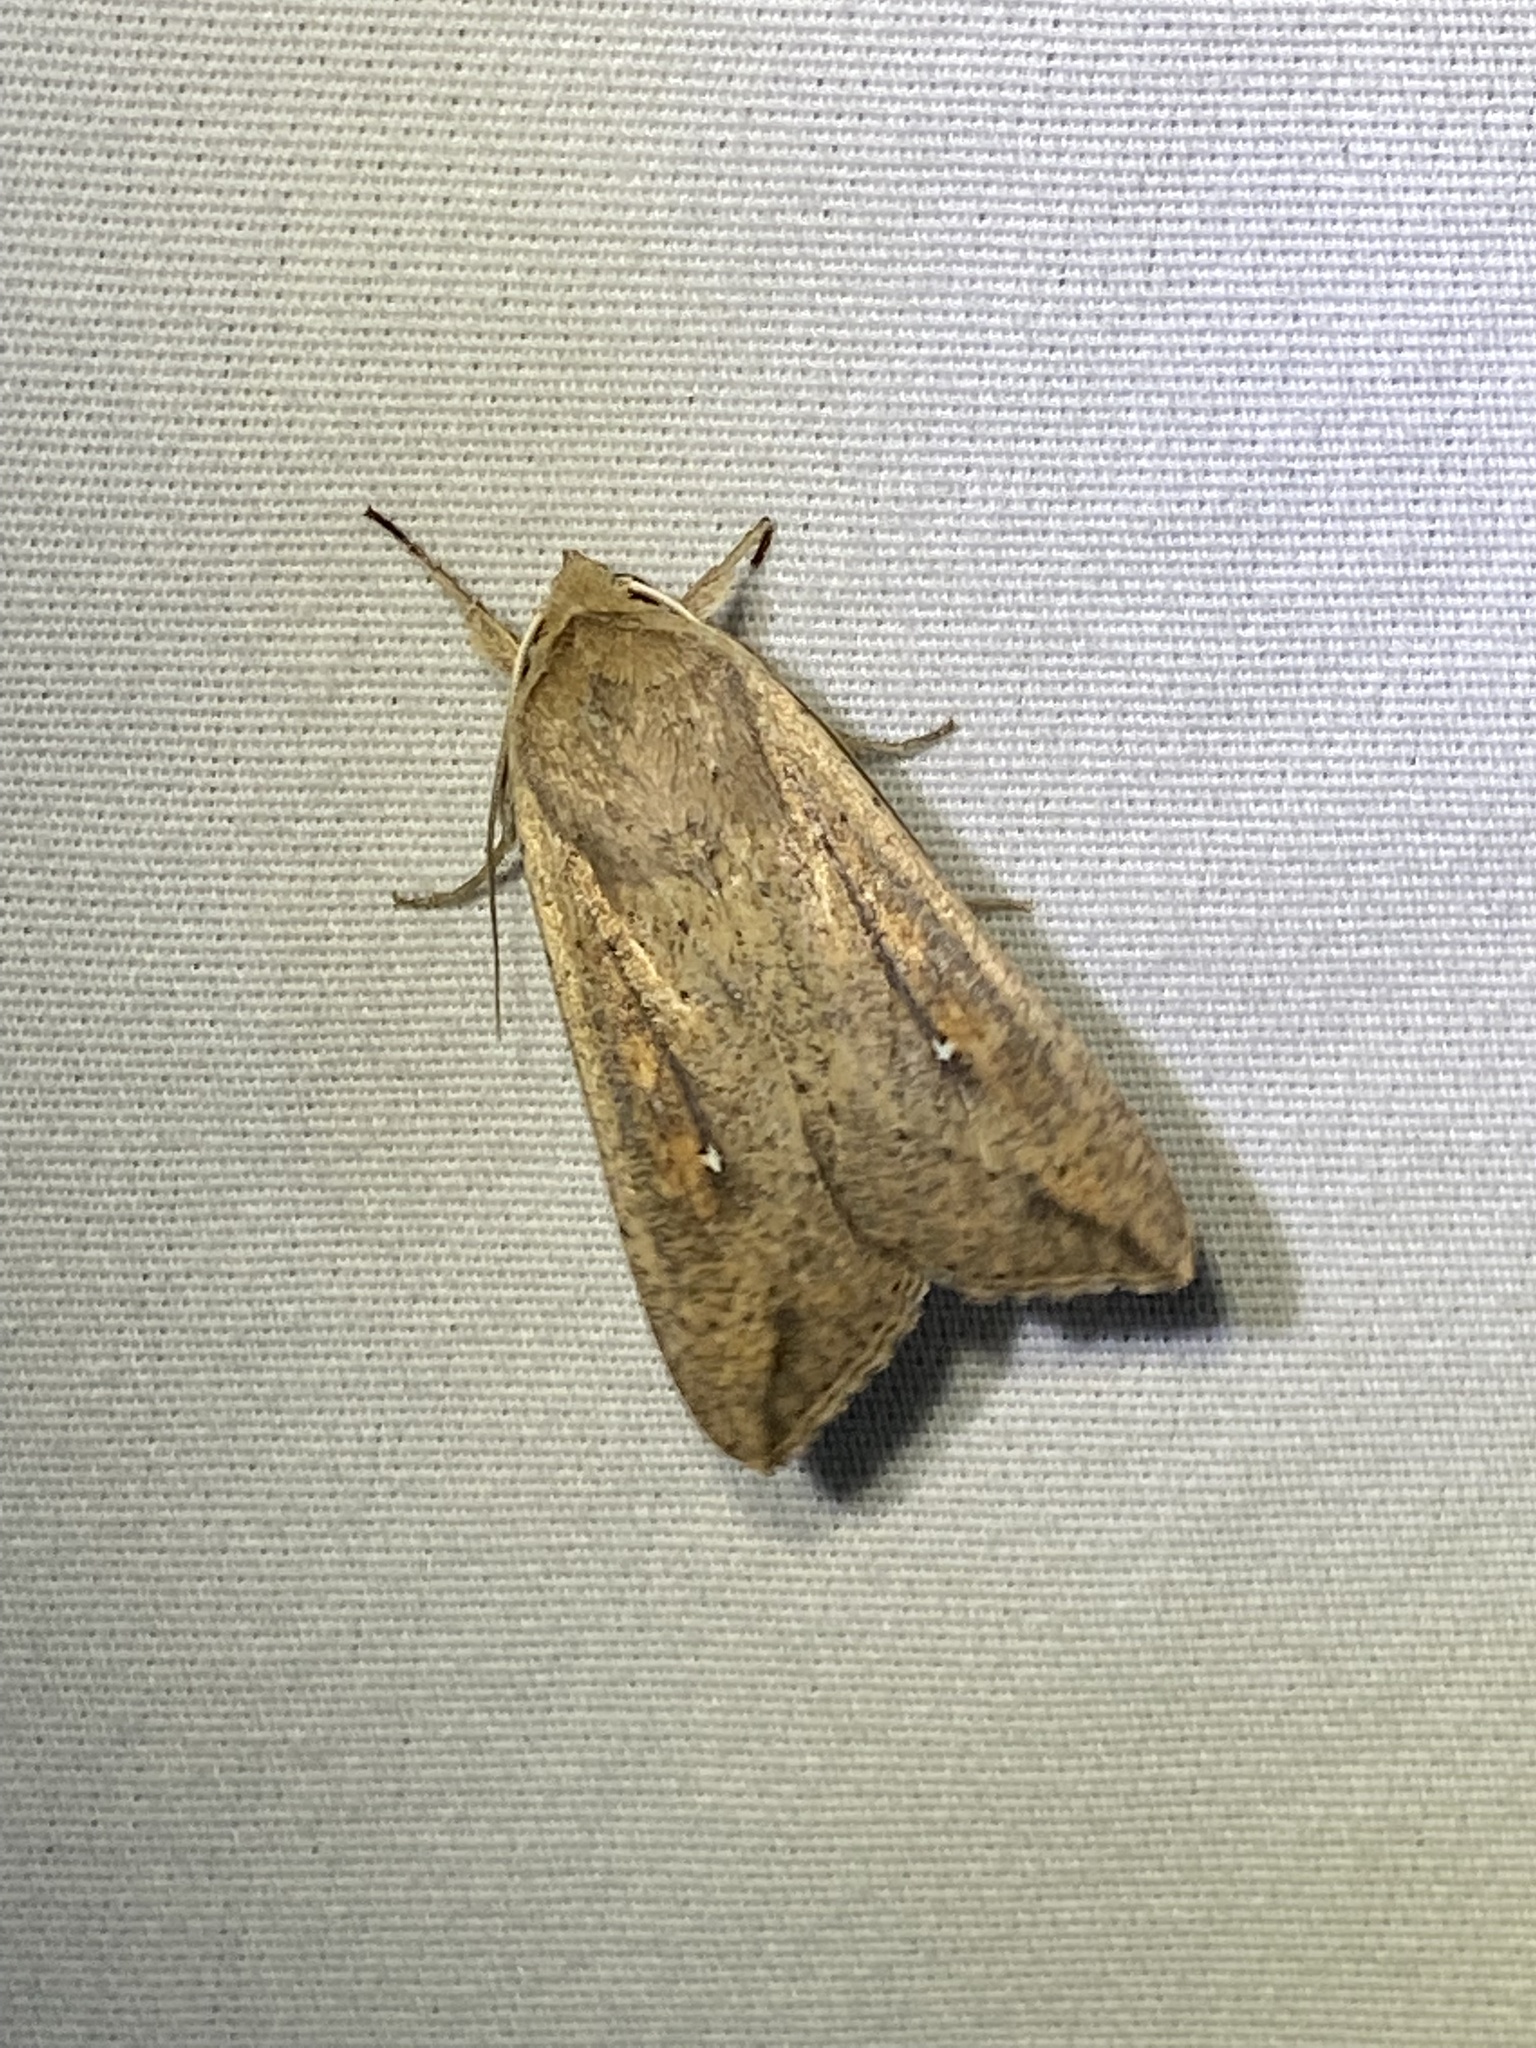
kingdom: Animalia
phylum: Arthropoda
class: Insecta
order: Lepidoptera
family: Noctuidae
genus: Mythimna
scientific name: Mythimna unipuncta
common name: White-speck
